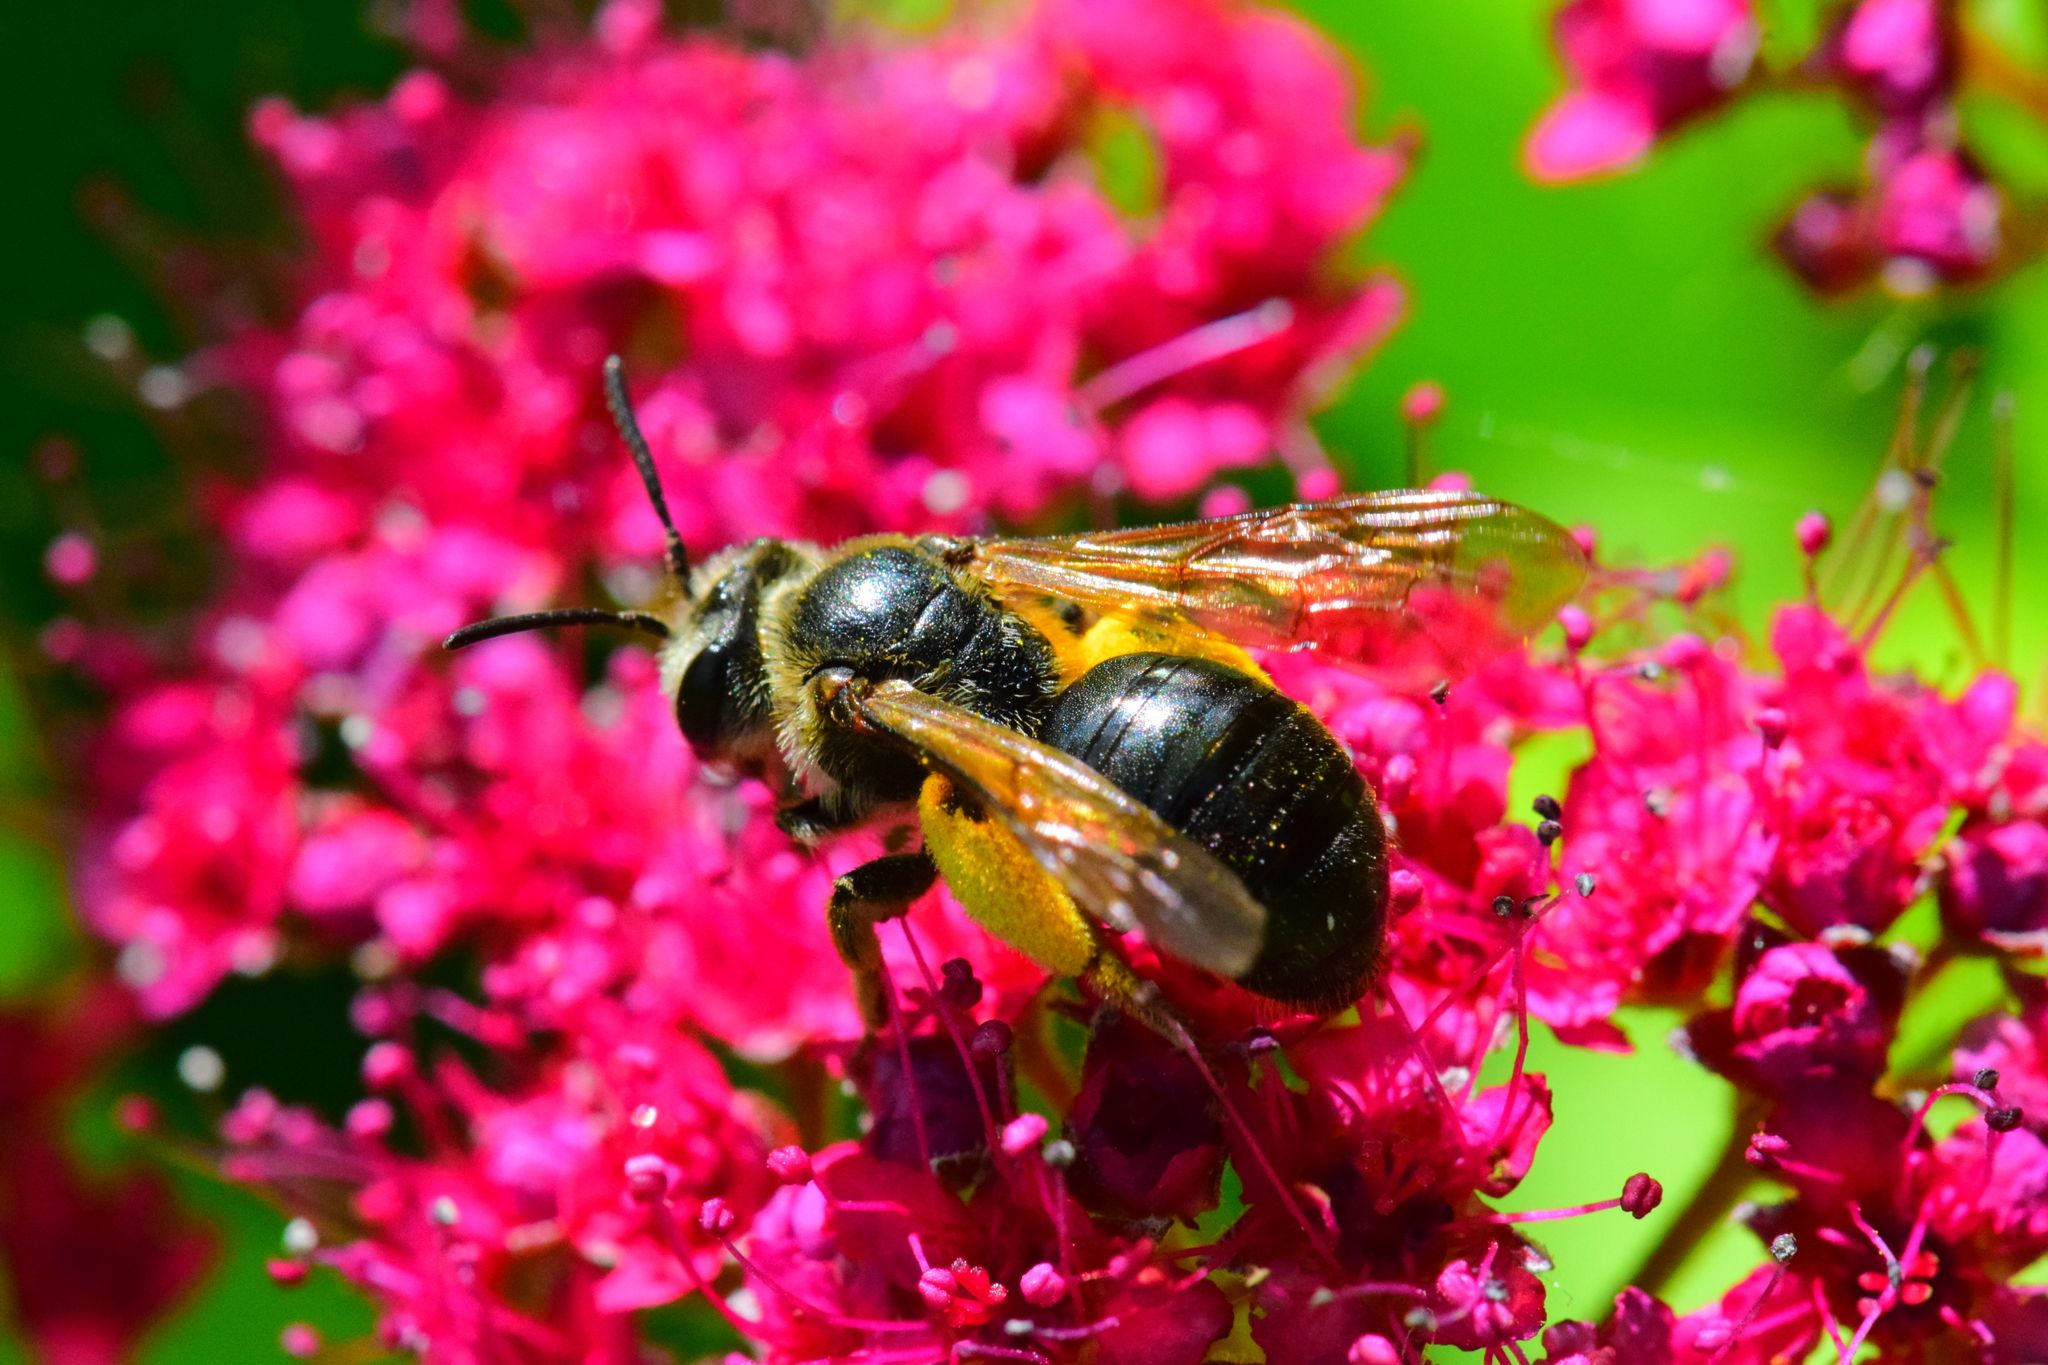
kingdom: Animalia
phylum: Arthropoda
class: Insecta
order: Hymenoptera
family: Andrenidae
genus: Andrena
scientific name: Andrena crataegi
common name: Hawthorn mining bee
